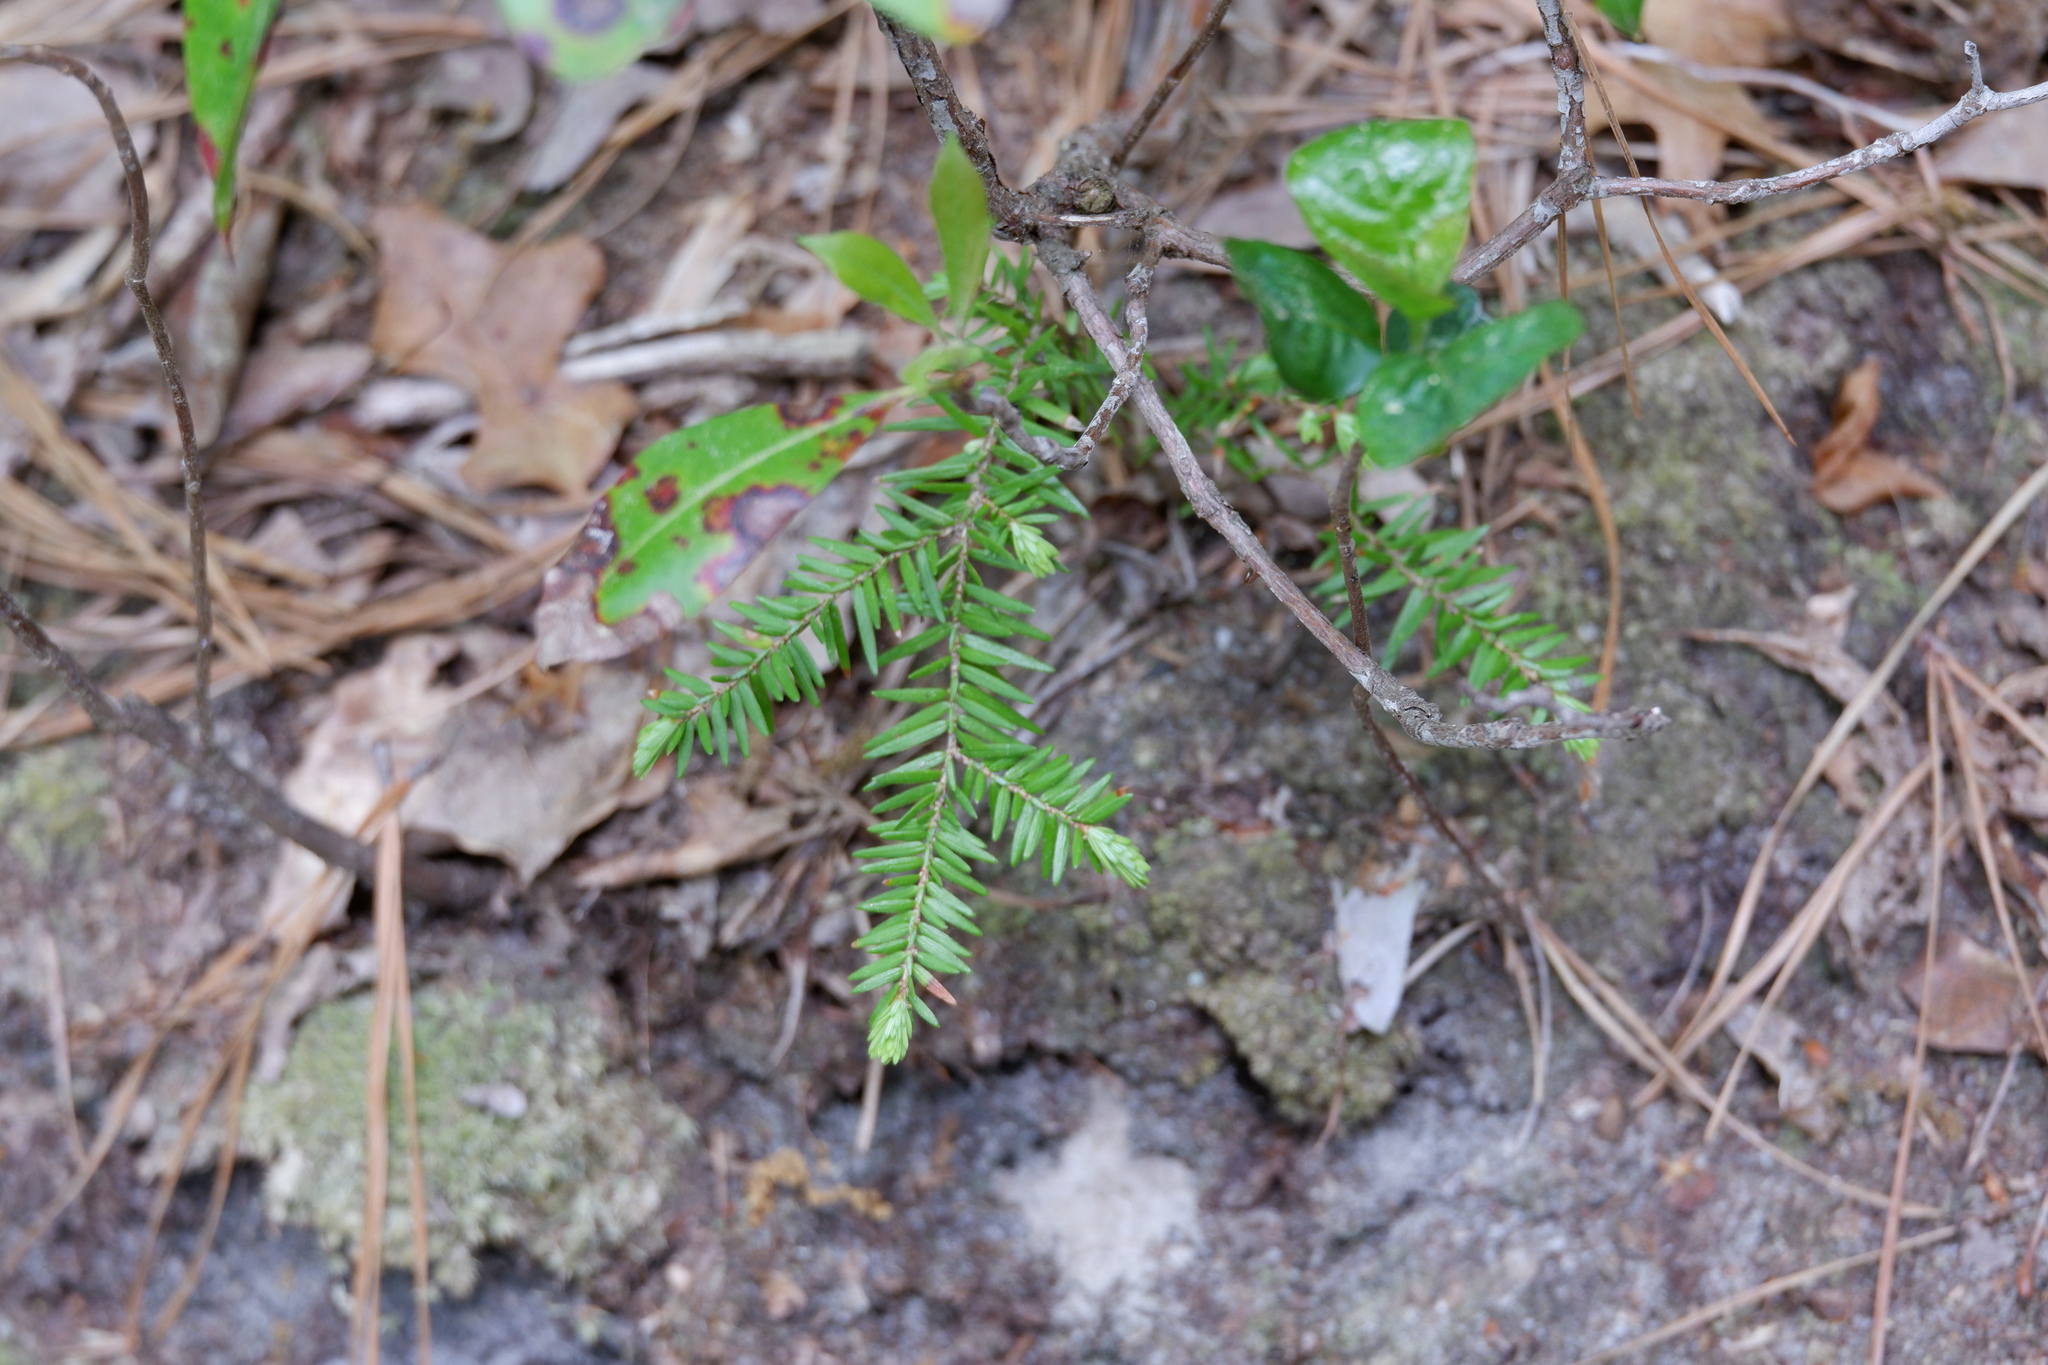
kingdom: Plantae
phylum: Tracheophyta
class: Pinopsida
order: Pinales
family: Pinaceae
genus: Tsuga
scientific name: Tsuga canadensis
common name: Eastern hemlock
